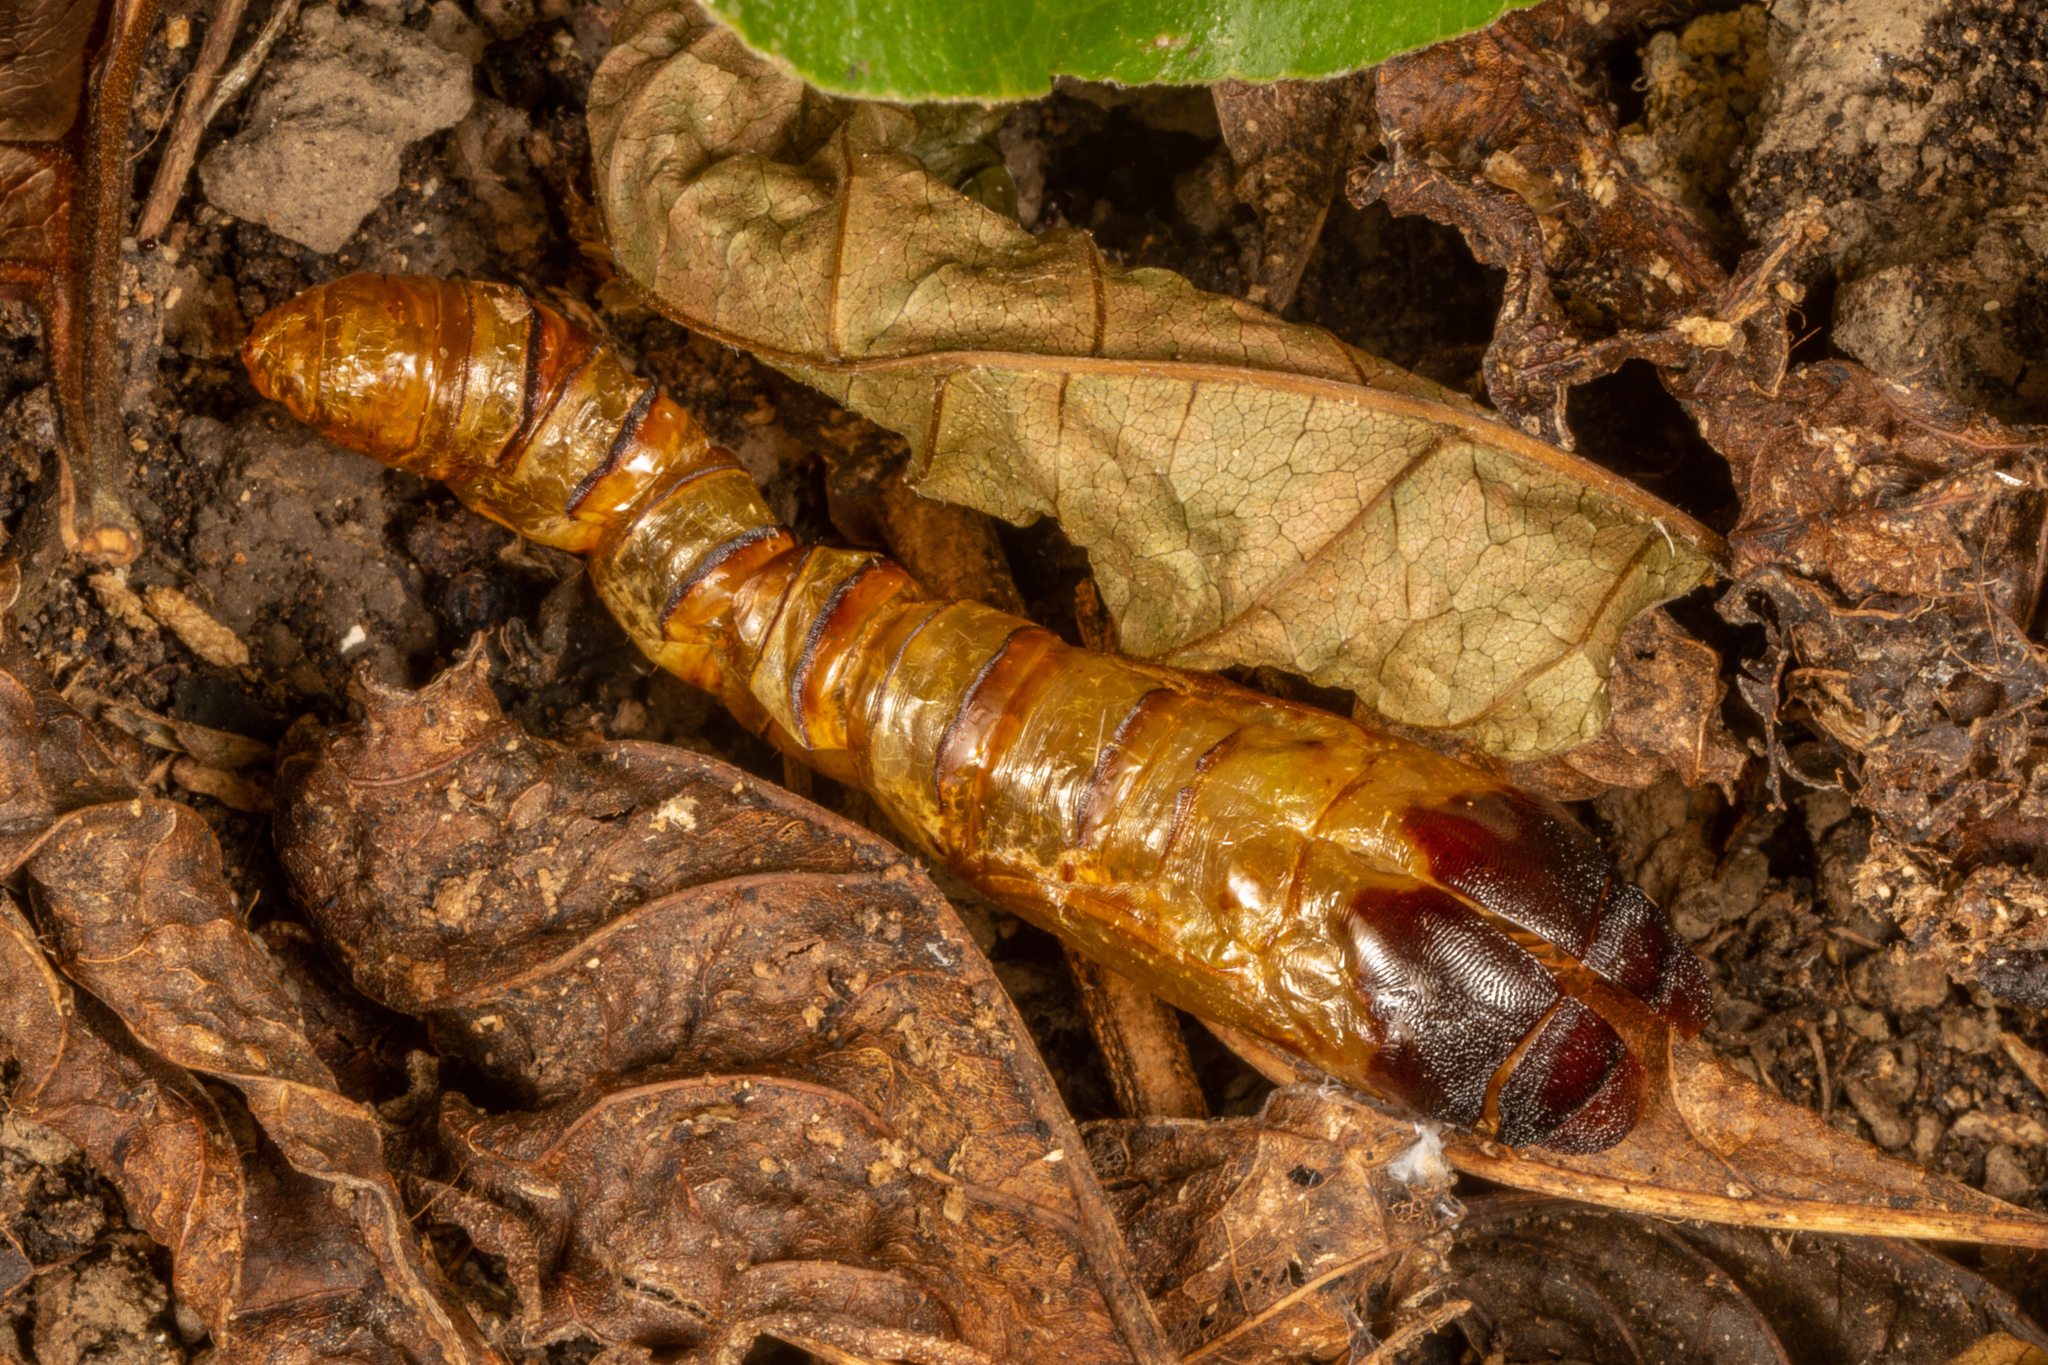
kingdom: Animalia
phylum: Arthropoda
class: Insecta
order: Lepidoptera
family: Hepialidae
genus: Aenetus
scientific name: Aenetus virescens
